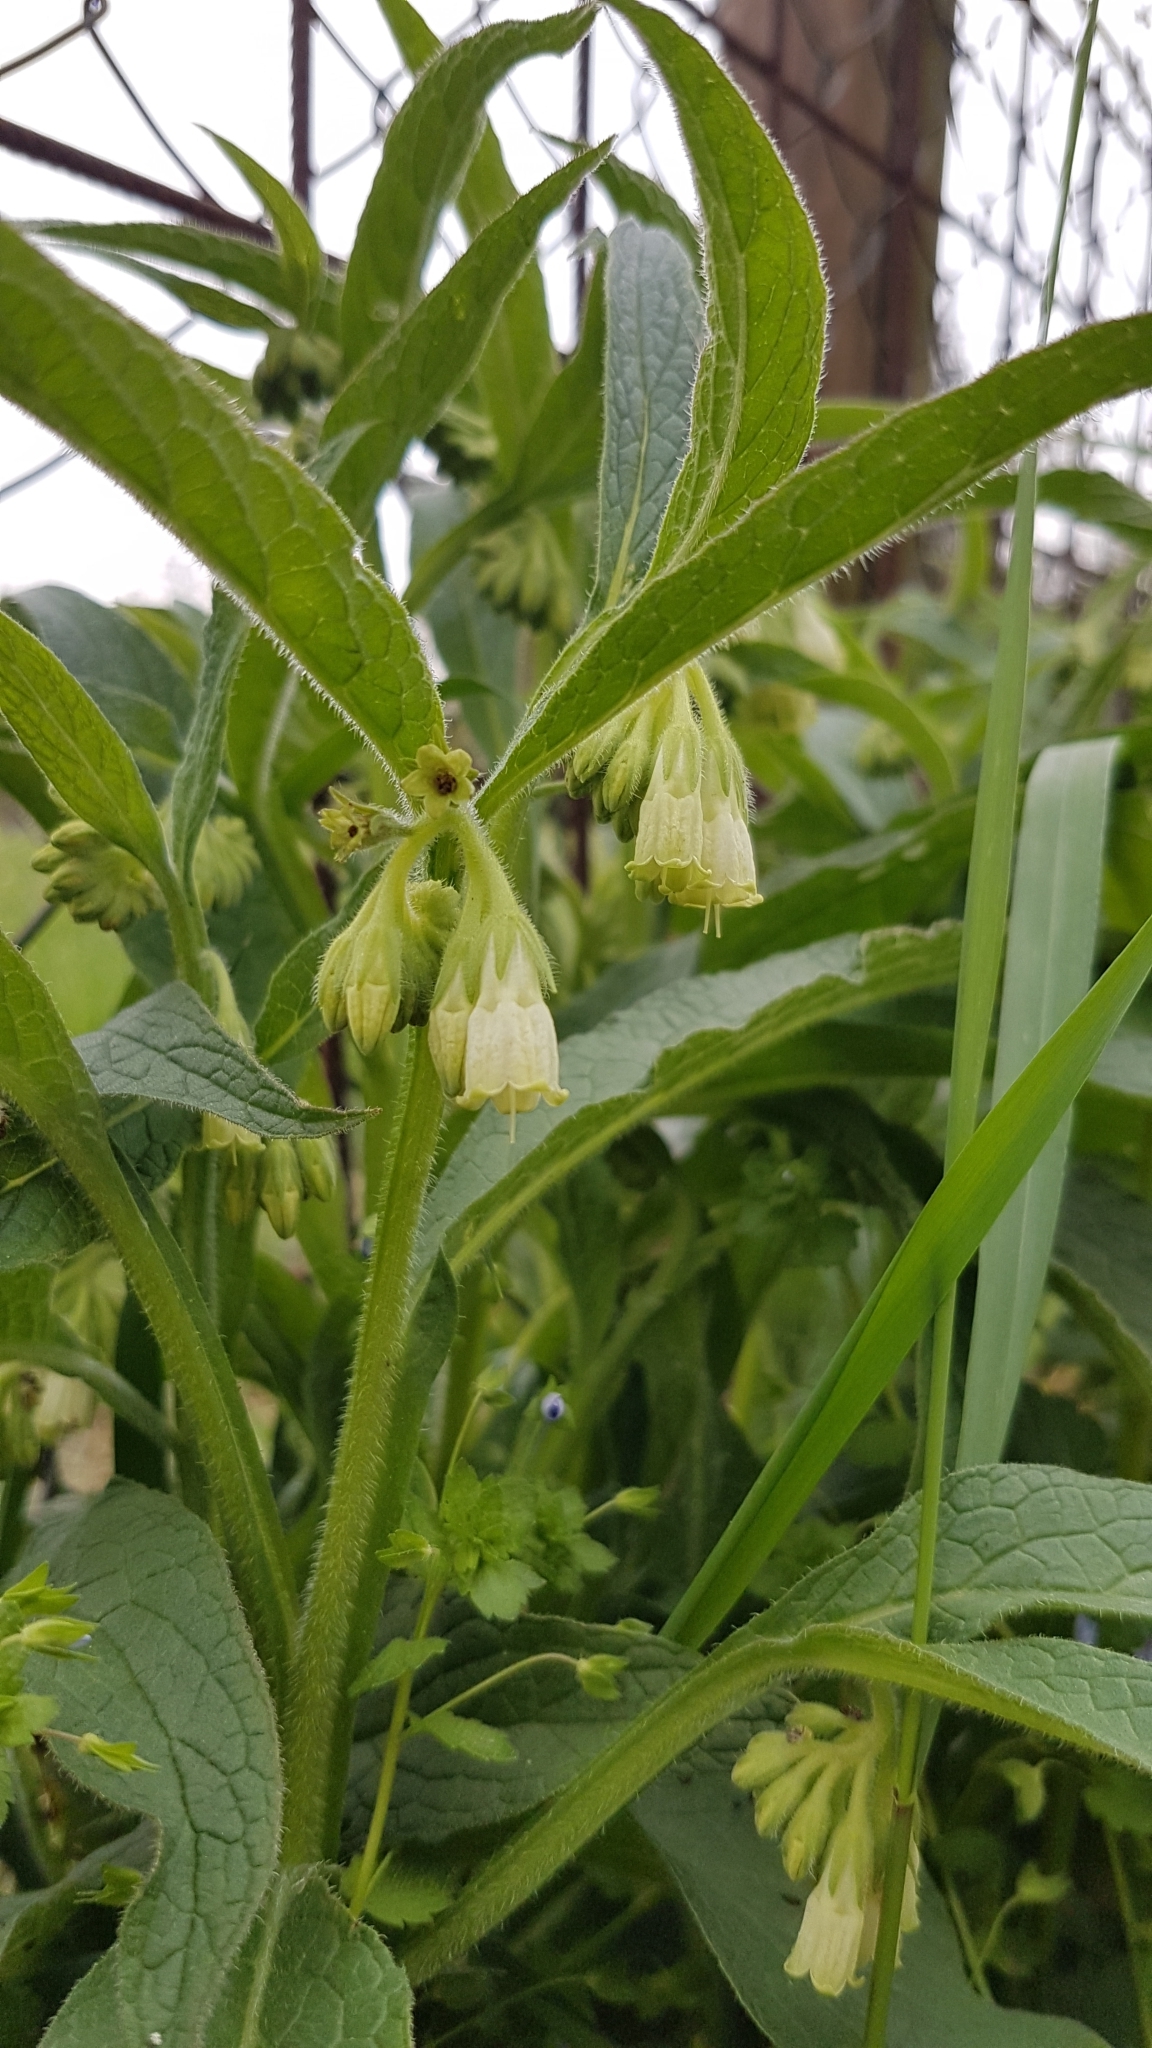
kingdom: Plantae
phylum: Tracheophyta
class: Magnoliopsida
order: Boraginales
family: Boraginaceae
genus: Symphytum
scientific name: Symphytum officinale
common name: Common comfrey
